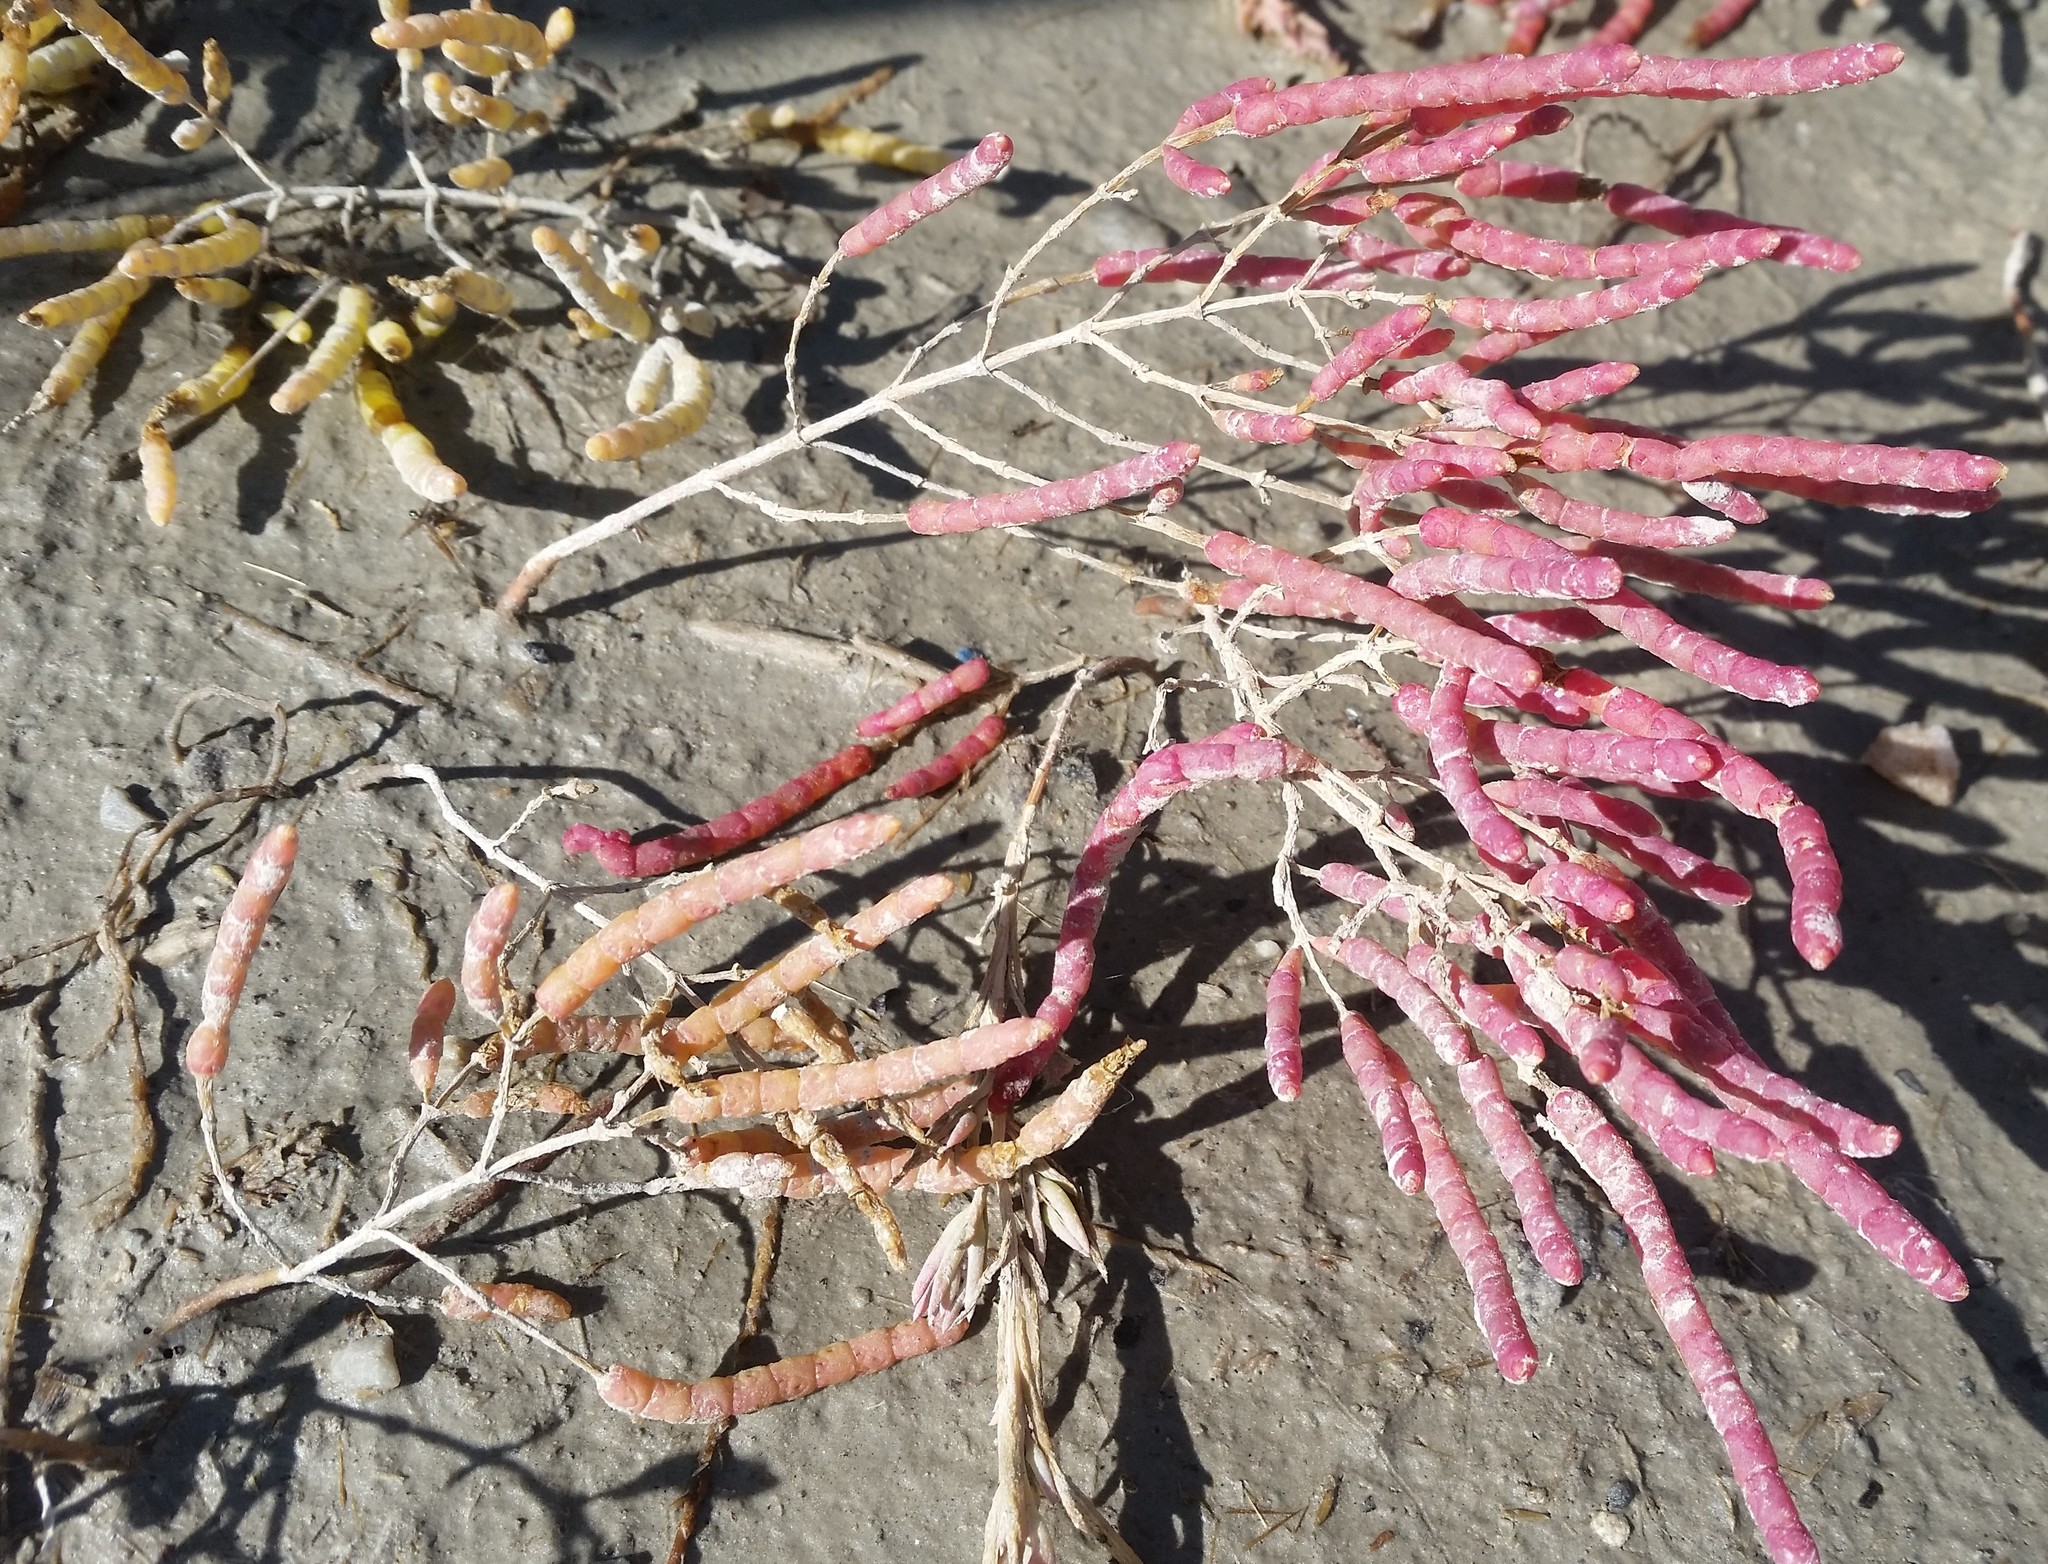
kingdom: Plantae
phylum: Tracheophyta
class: Magnoliopsida
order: Caryophyllales
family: Amaranthaceae
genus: Salicornia
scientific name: Salicornia rubra
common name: Red glasswort
